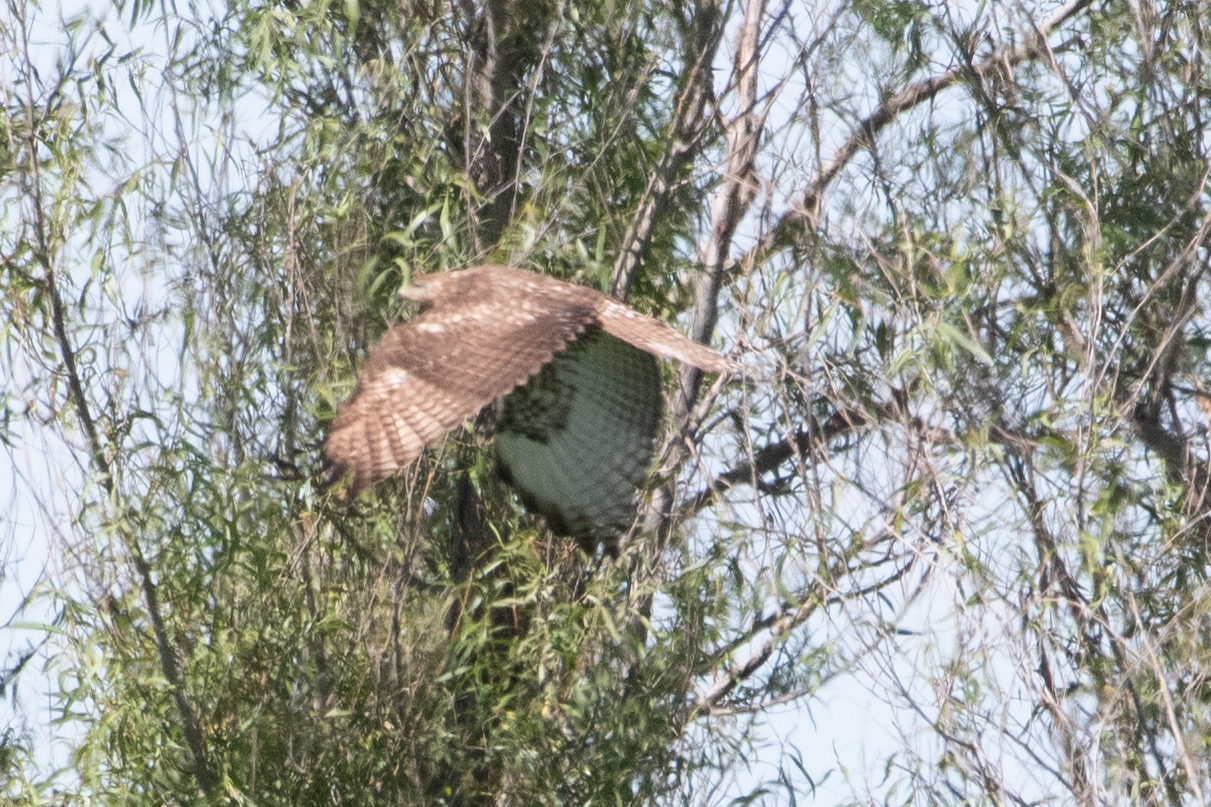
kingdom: Animalia
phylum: Chordata
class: Aves
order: Accipitriformes
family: Accipitridae
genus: Buteo
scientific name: Buteo jamaicensis
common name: Red-tailed hawk
